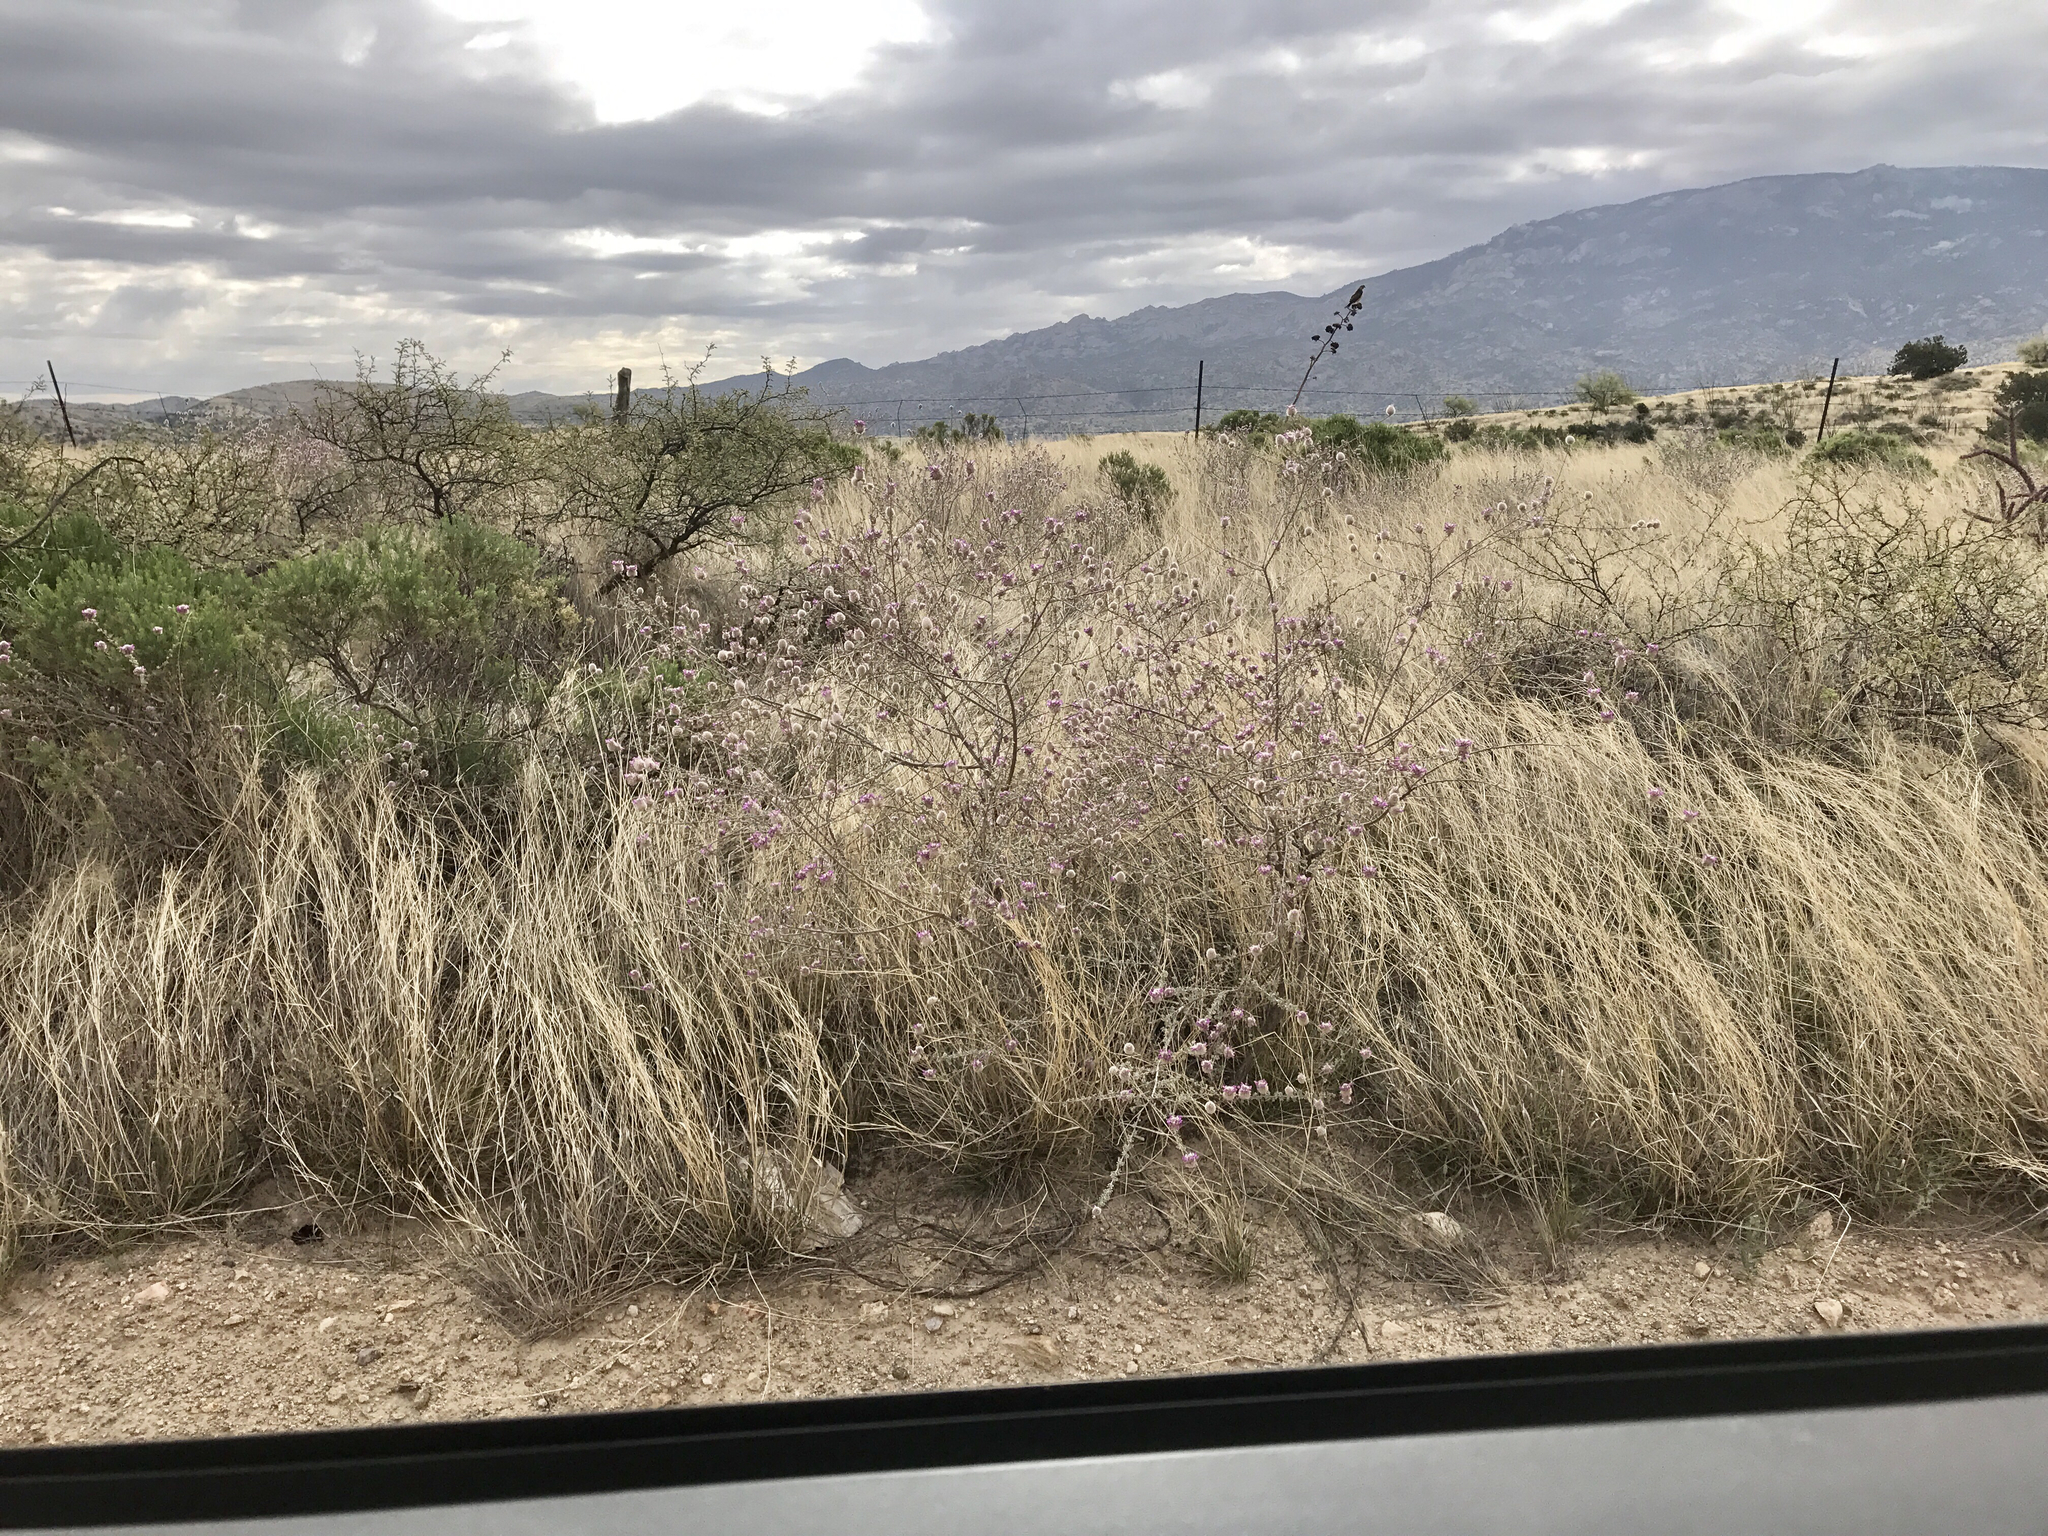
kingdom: Plantae
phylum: Tracheophyta
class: Magnoliopsida
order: Fabales
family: Fabaceae
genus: Dalea
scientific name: Dalea pulchra
